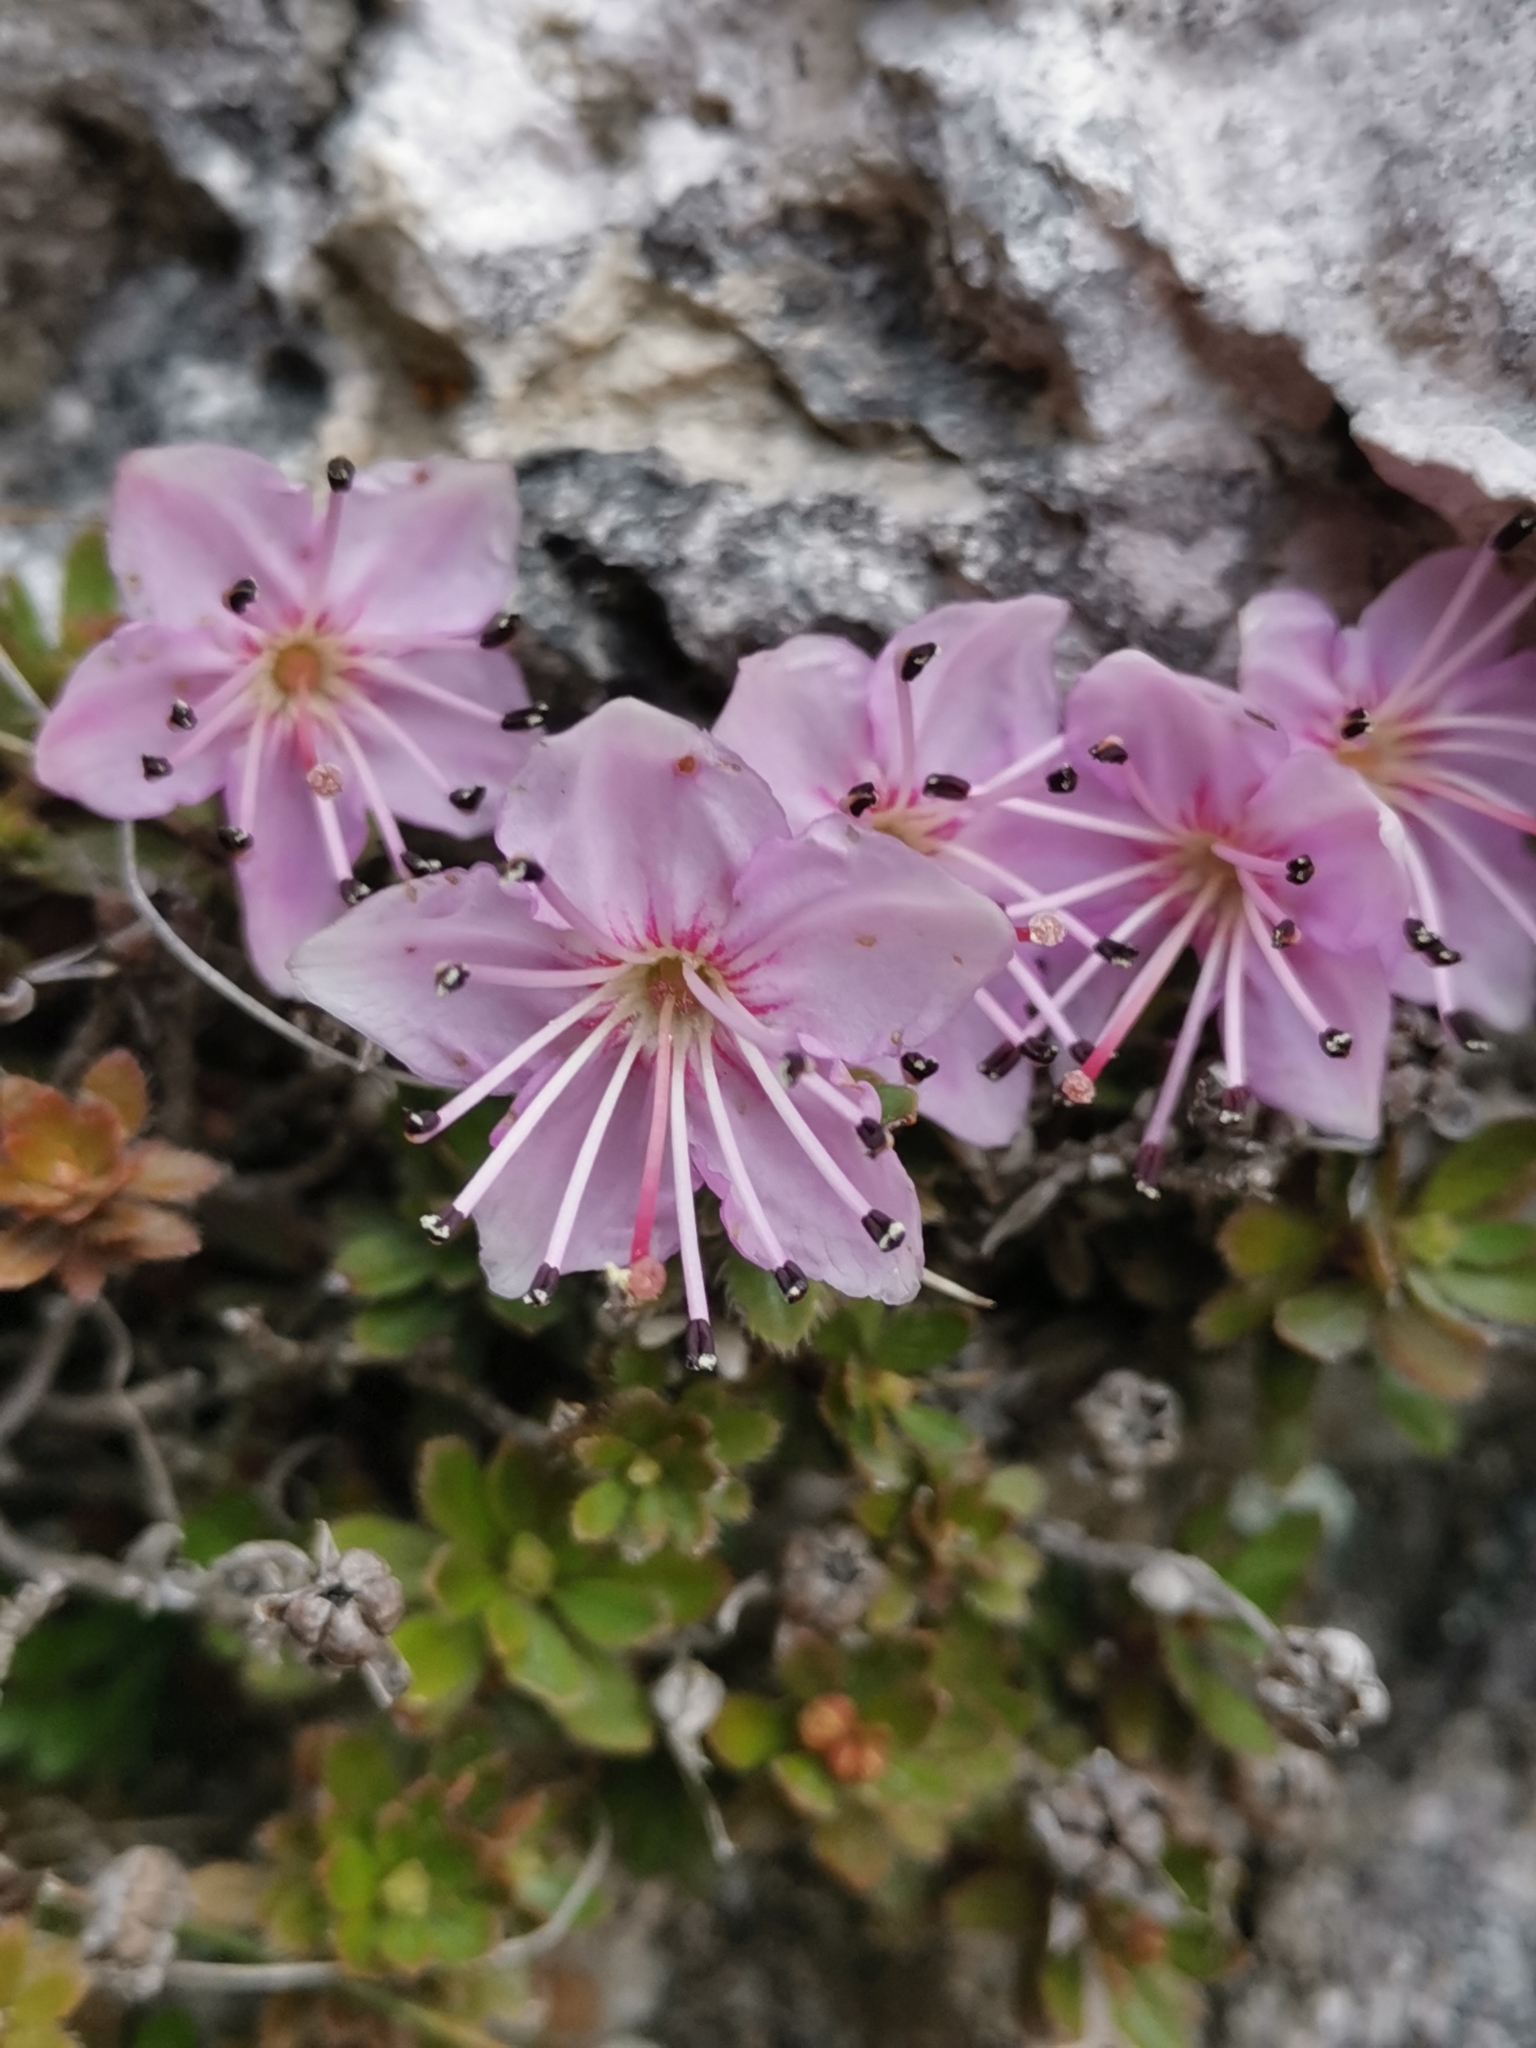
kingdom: Plantae
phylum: Tracheophyta
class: Magnoliopsida
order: Ericales
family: Ericaceae
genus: Rhodothamnus
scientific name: Rhodothamnus chamaecistus
